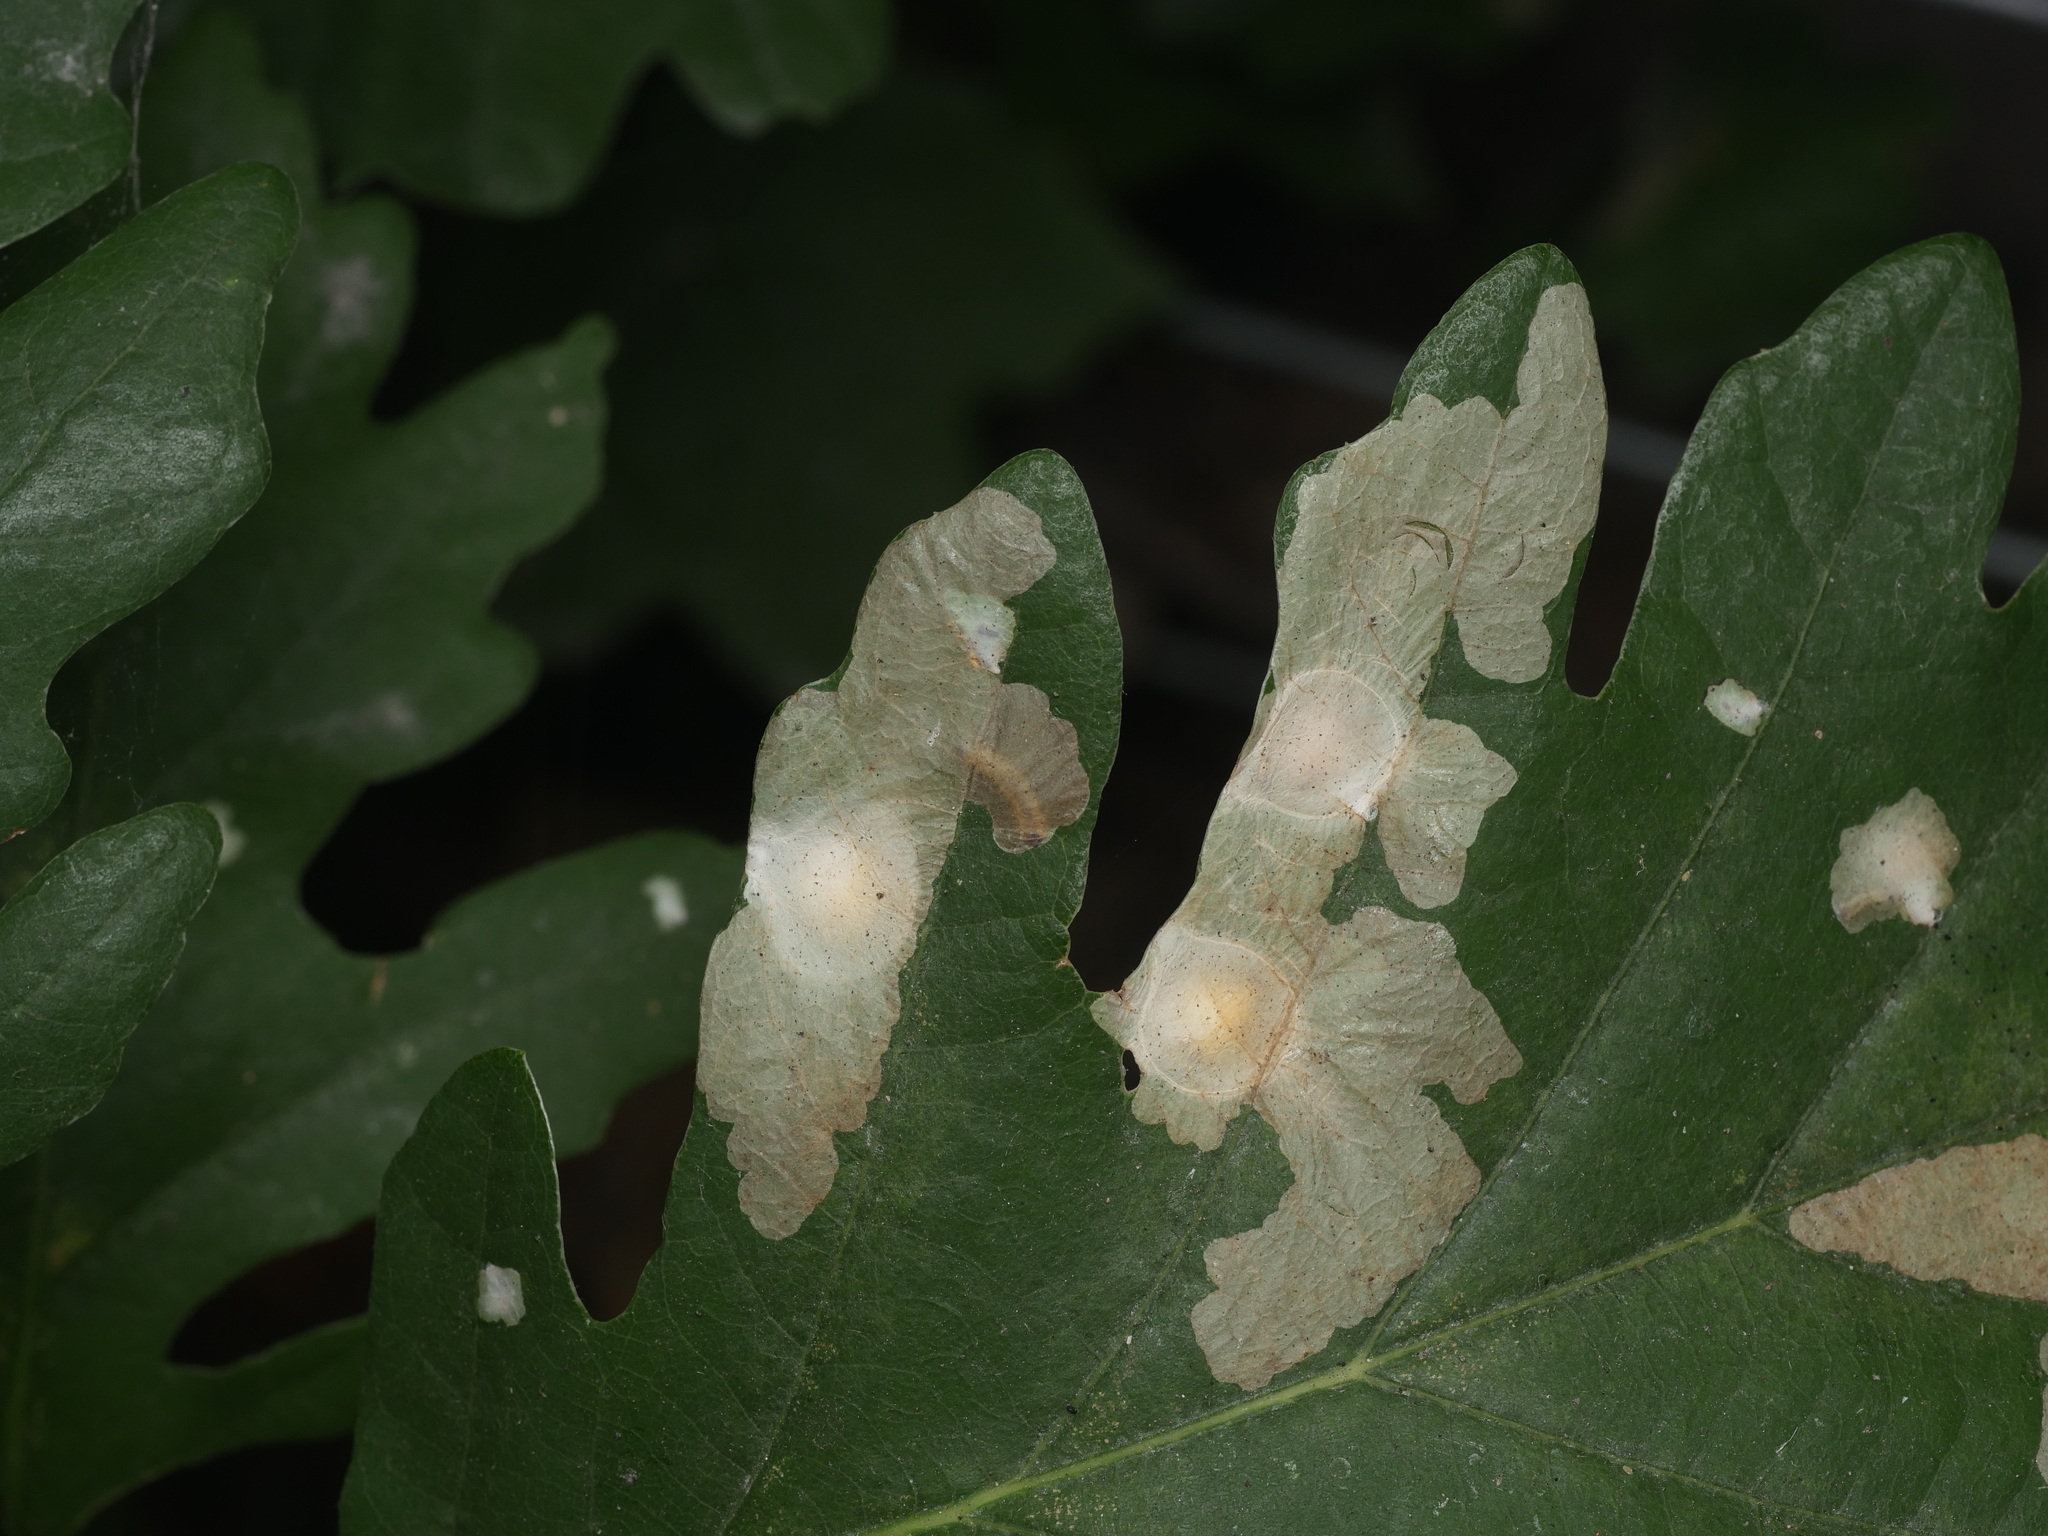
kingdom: Animalia
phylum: Arthropoda
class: Insecta
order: Lepidoptera
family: Tischeriidae
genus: Tischeria
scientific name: Tischeria ekebladella
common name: Oak carl
